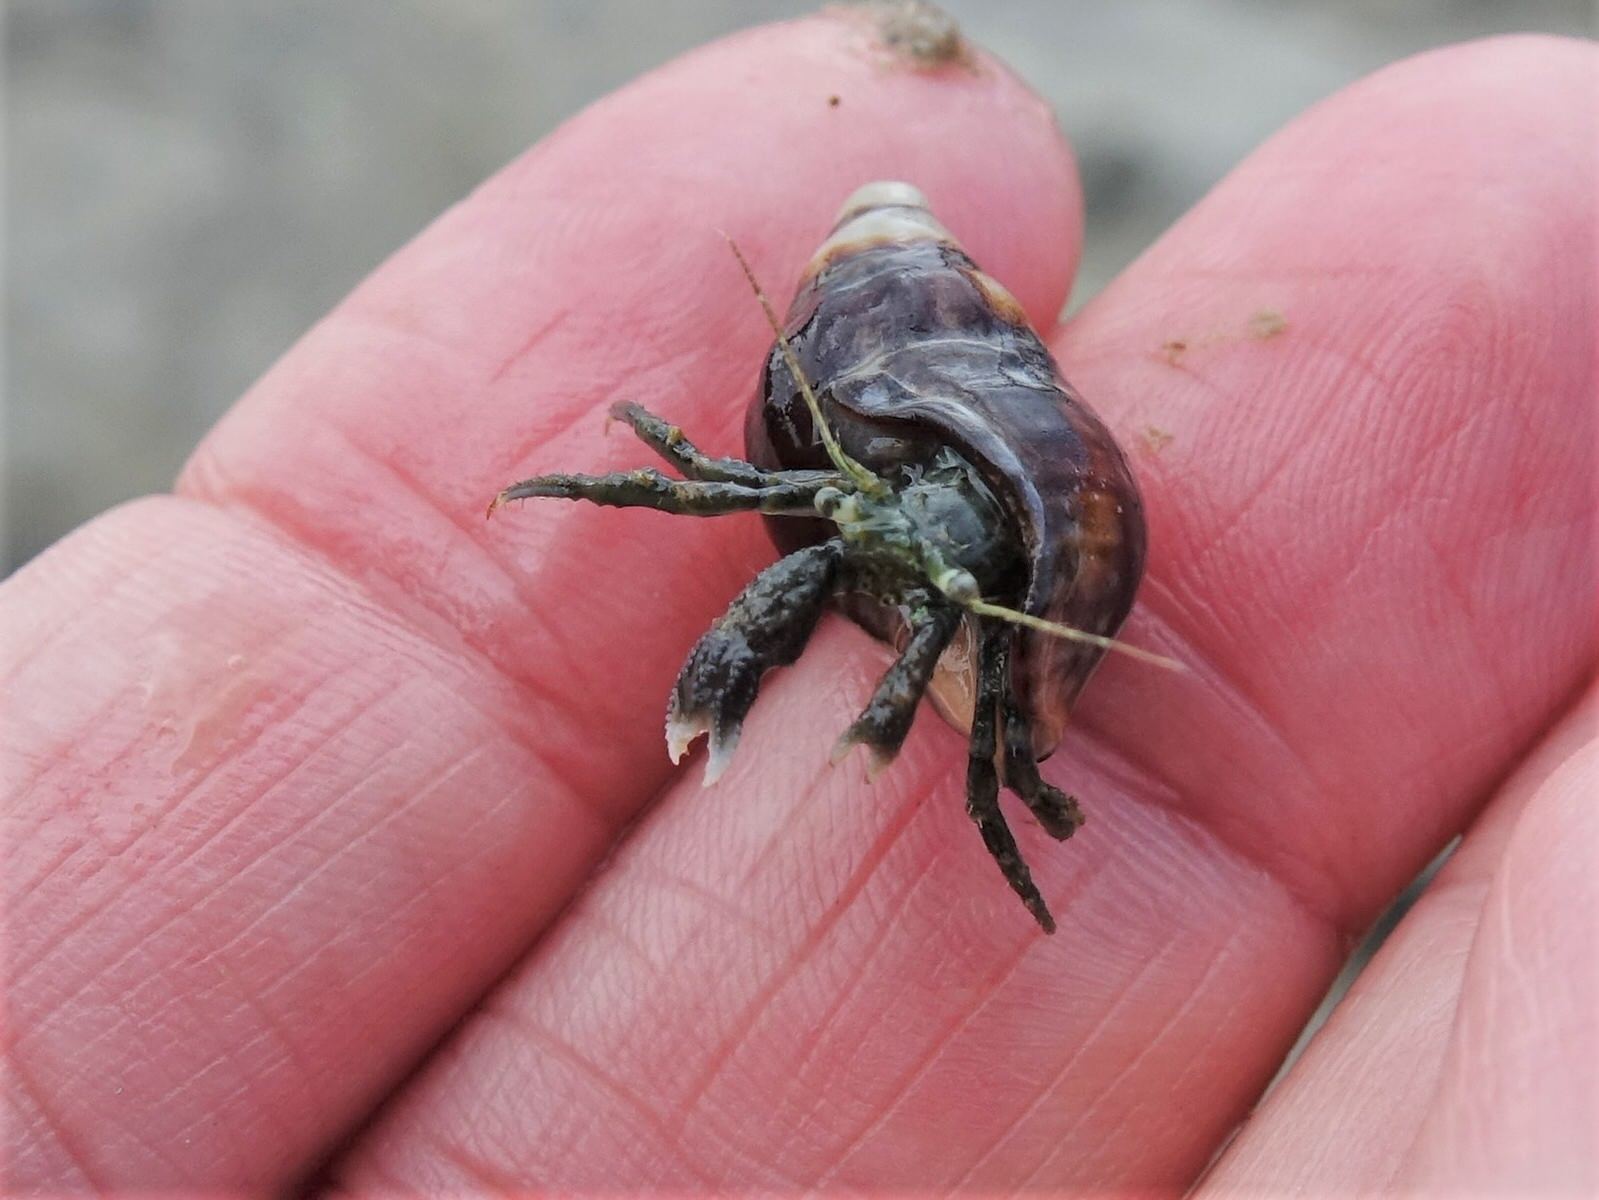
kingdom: Animalia
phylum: Arthropoda
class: Malacostraca
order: Decapoda
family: Paguridae
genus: Pagurus
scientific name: Pagurus novizealandiae
